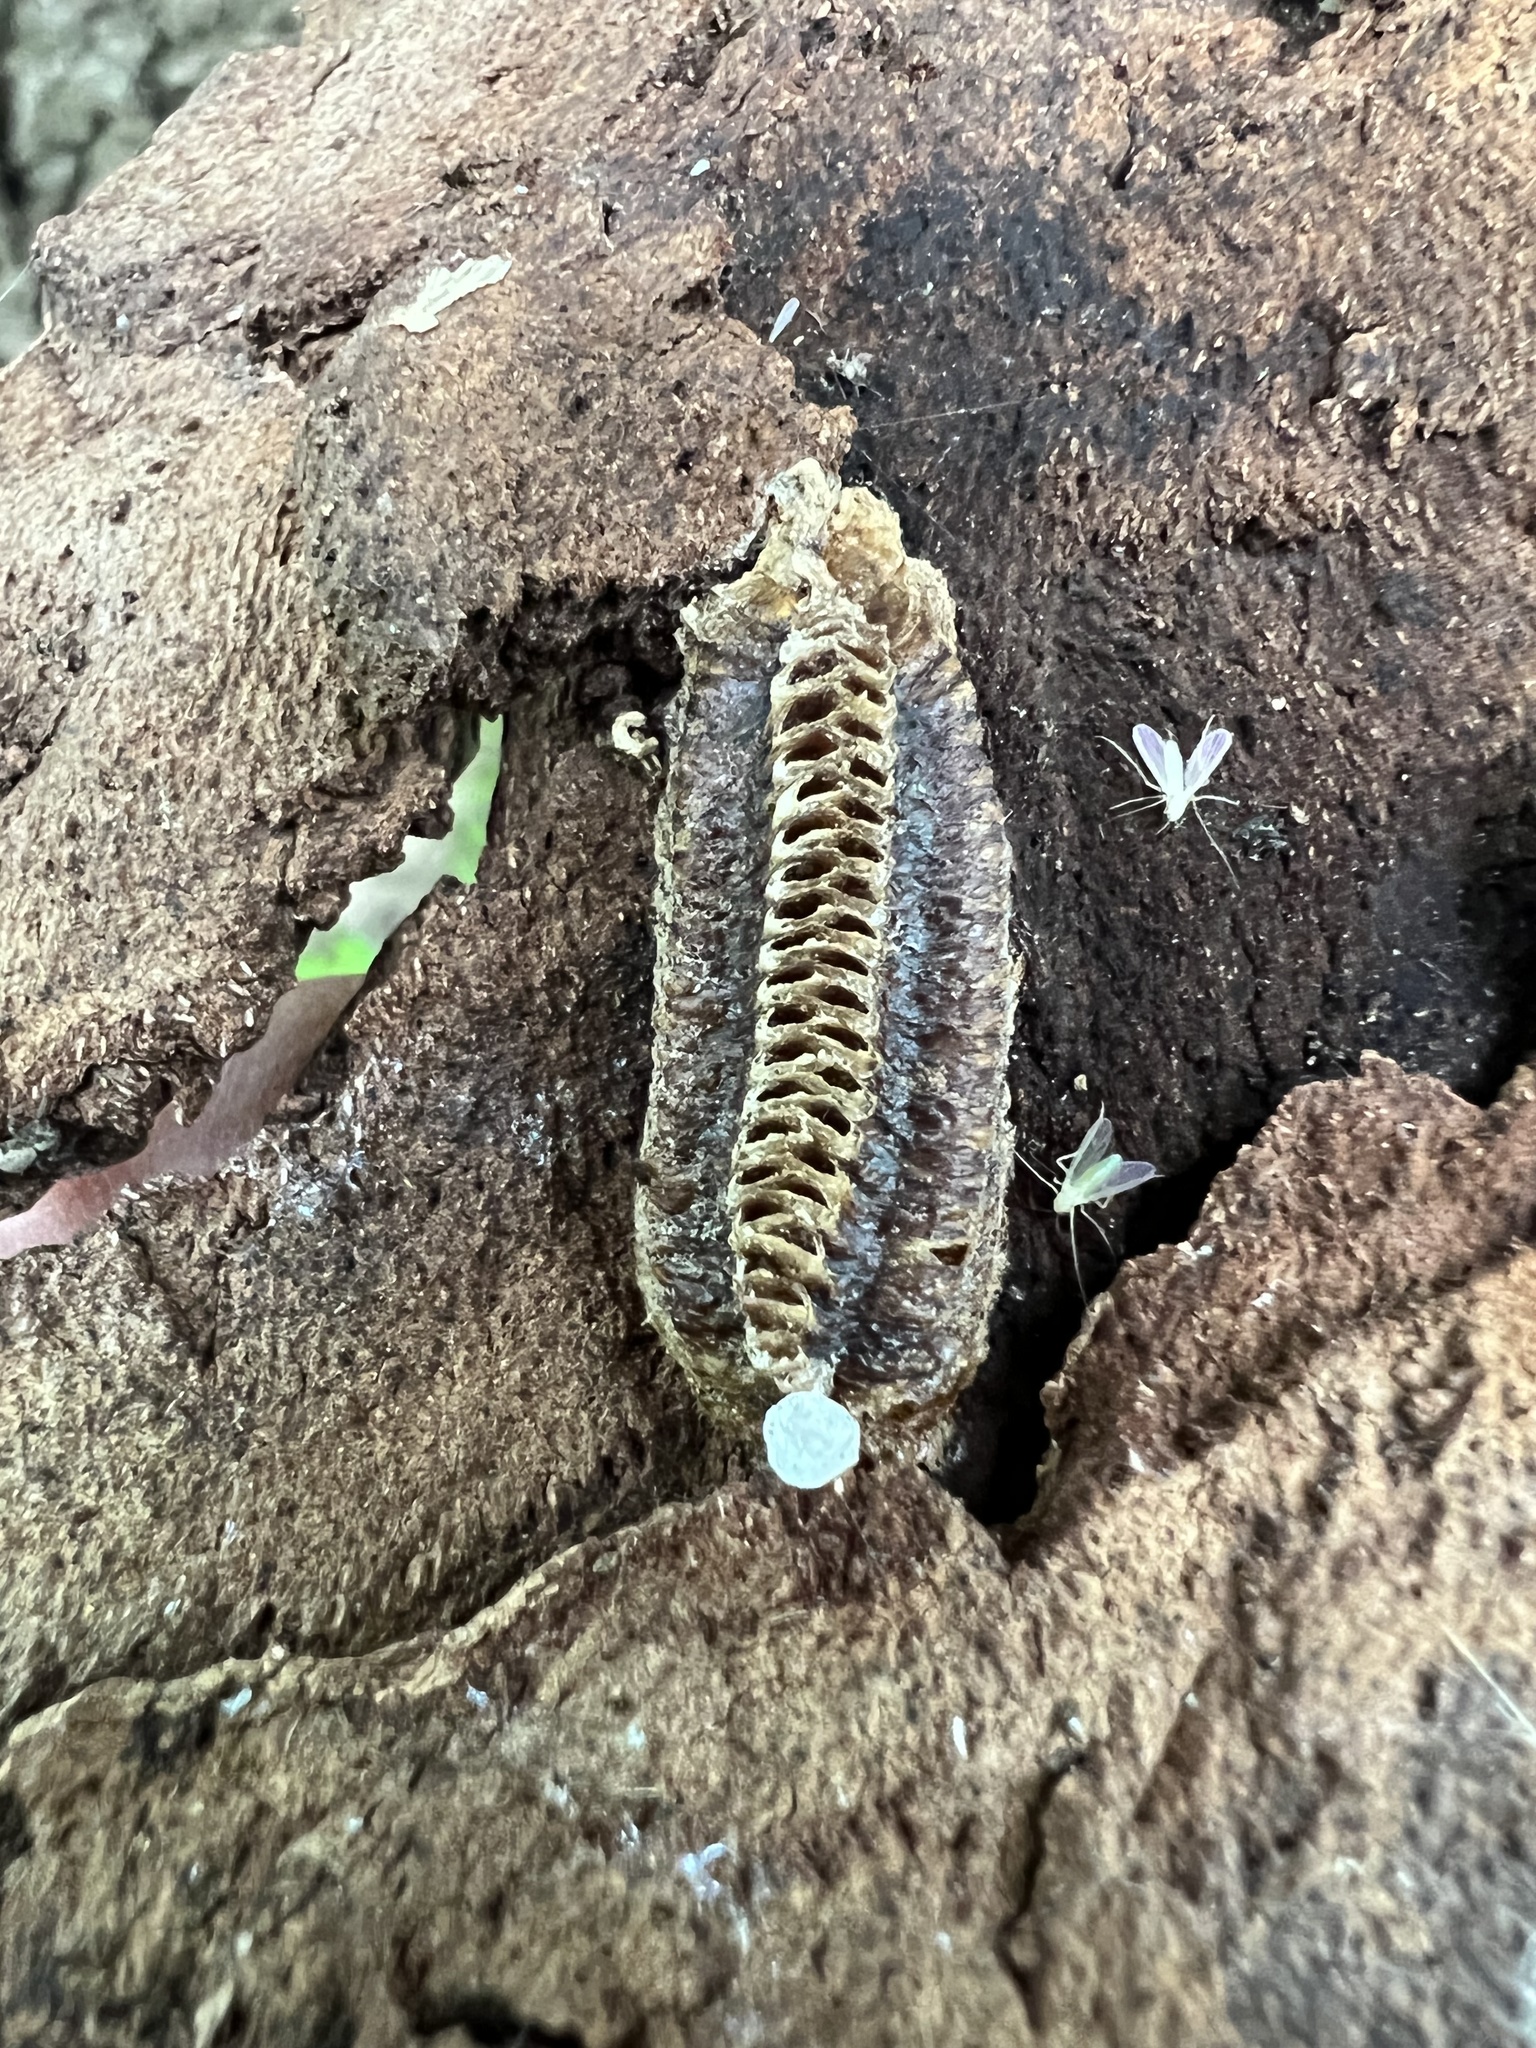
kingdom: Animalia
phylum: Arthropoda
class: Insecta
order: Mantodea
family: Mantidae
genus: Stagmomantis
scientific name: Stagmomantis carolina
